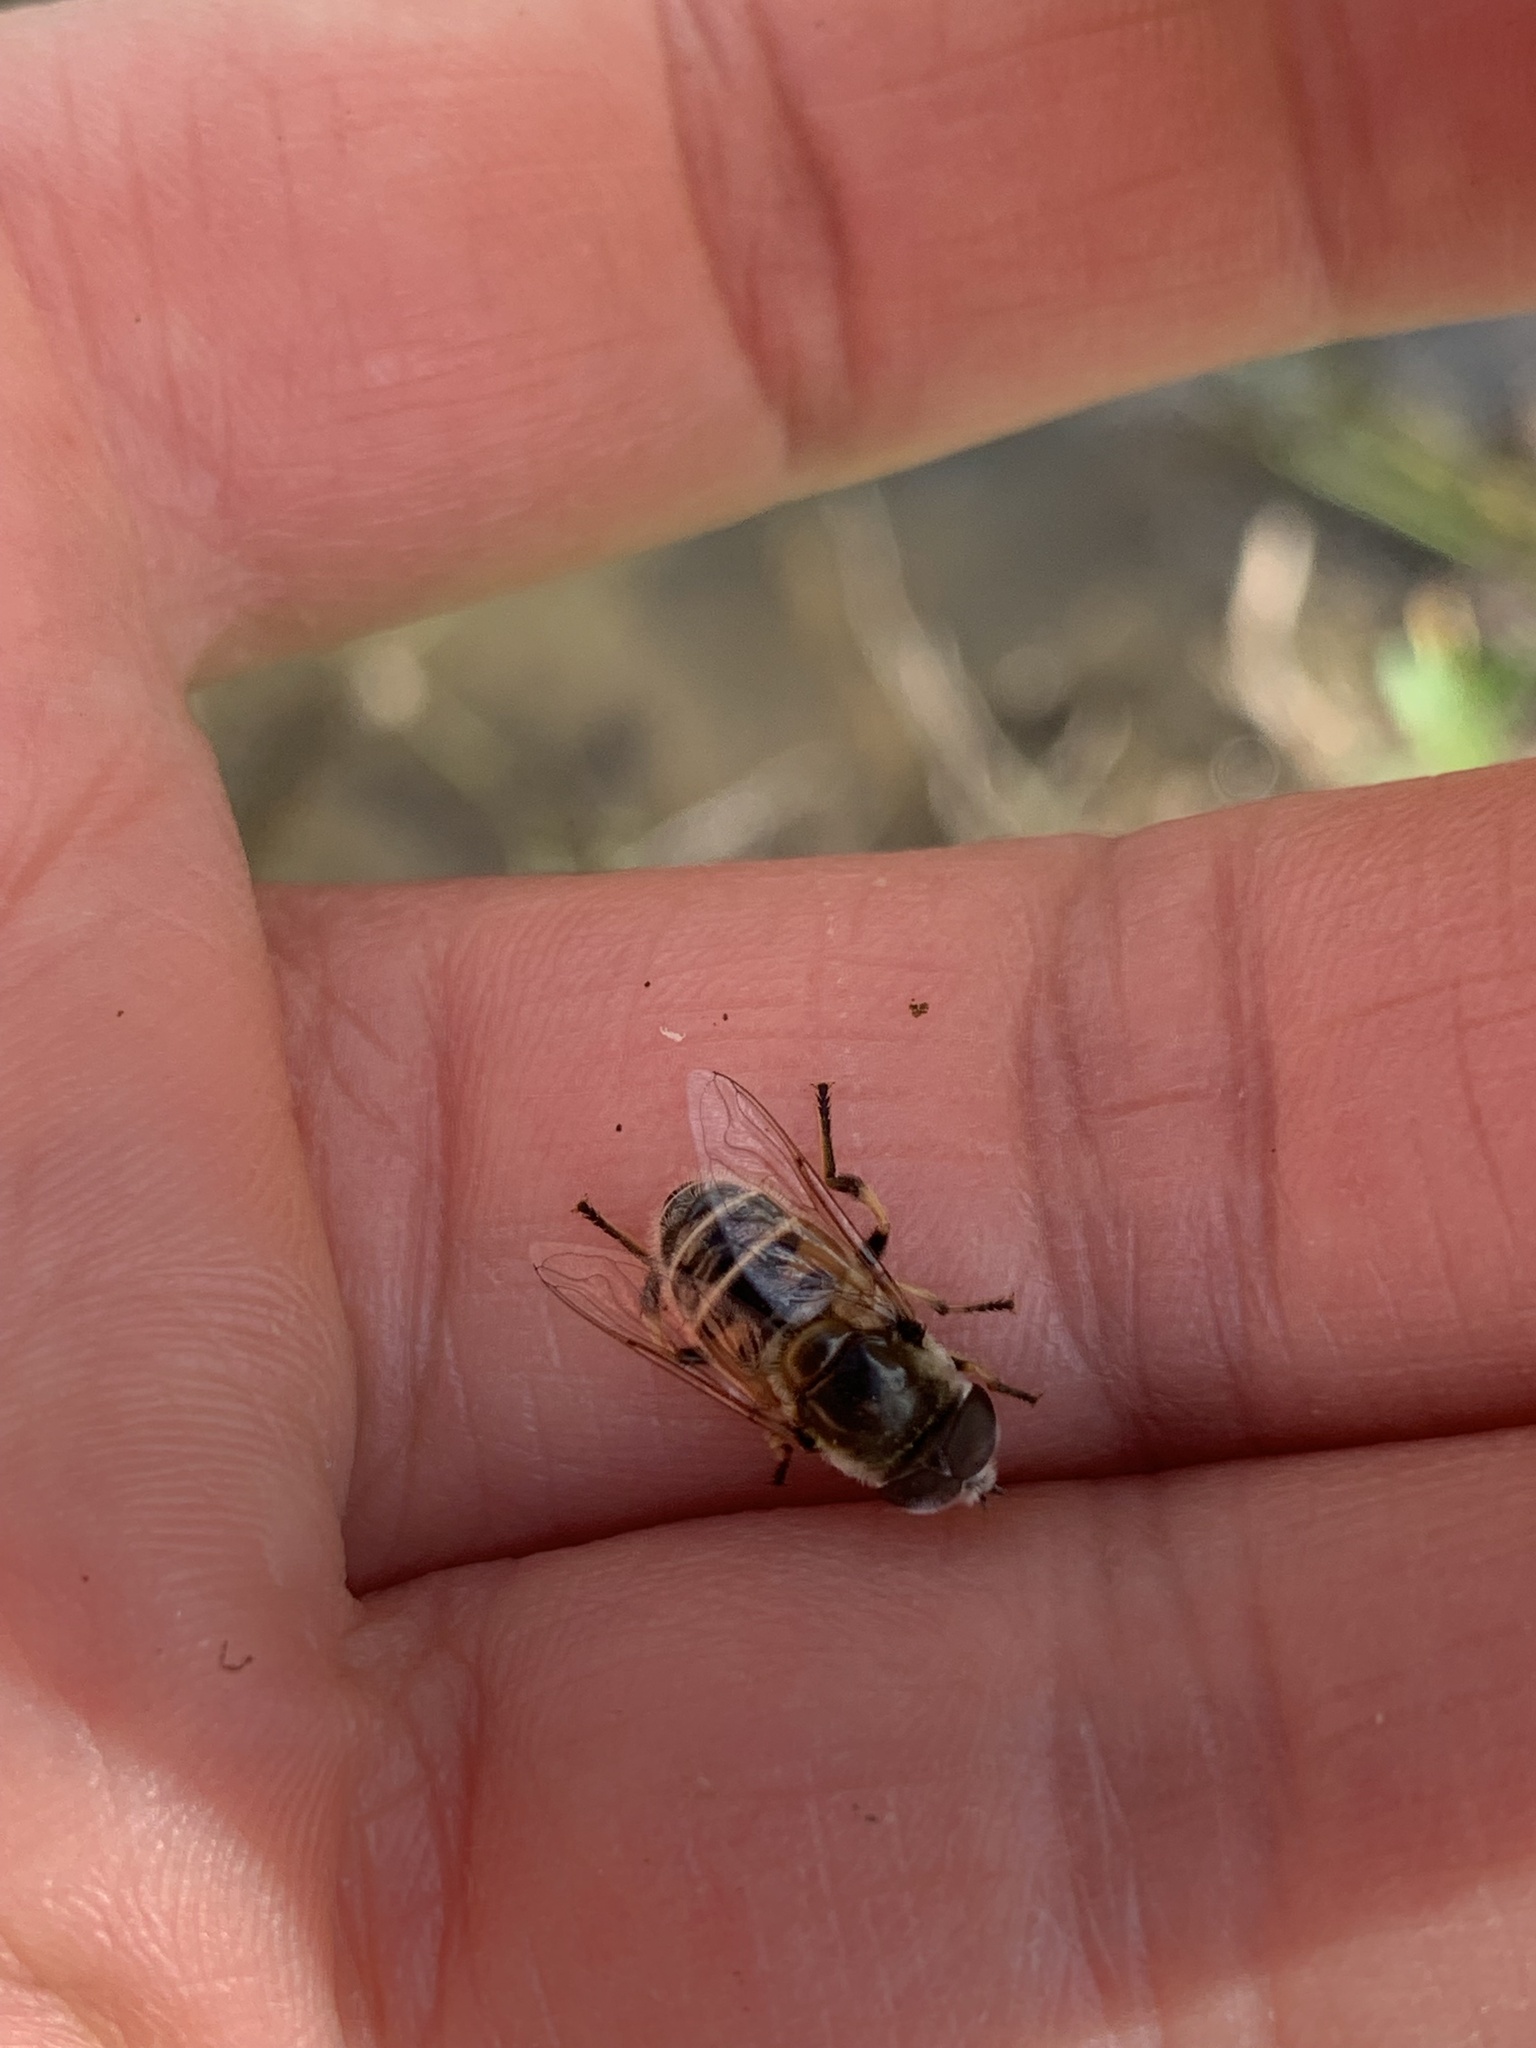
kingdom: Animalia
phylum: Arthropoda
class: Insecta
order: Diptera
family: Syrphidae
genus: Eristalis
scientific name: Eristalis stipator
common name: Yellow-shouldered drone fly
